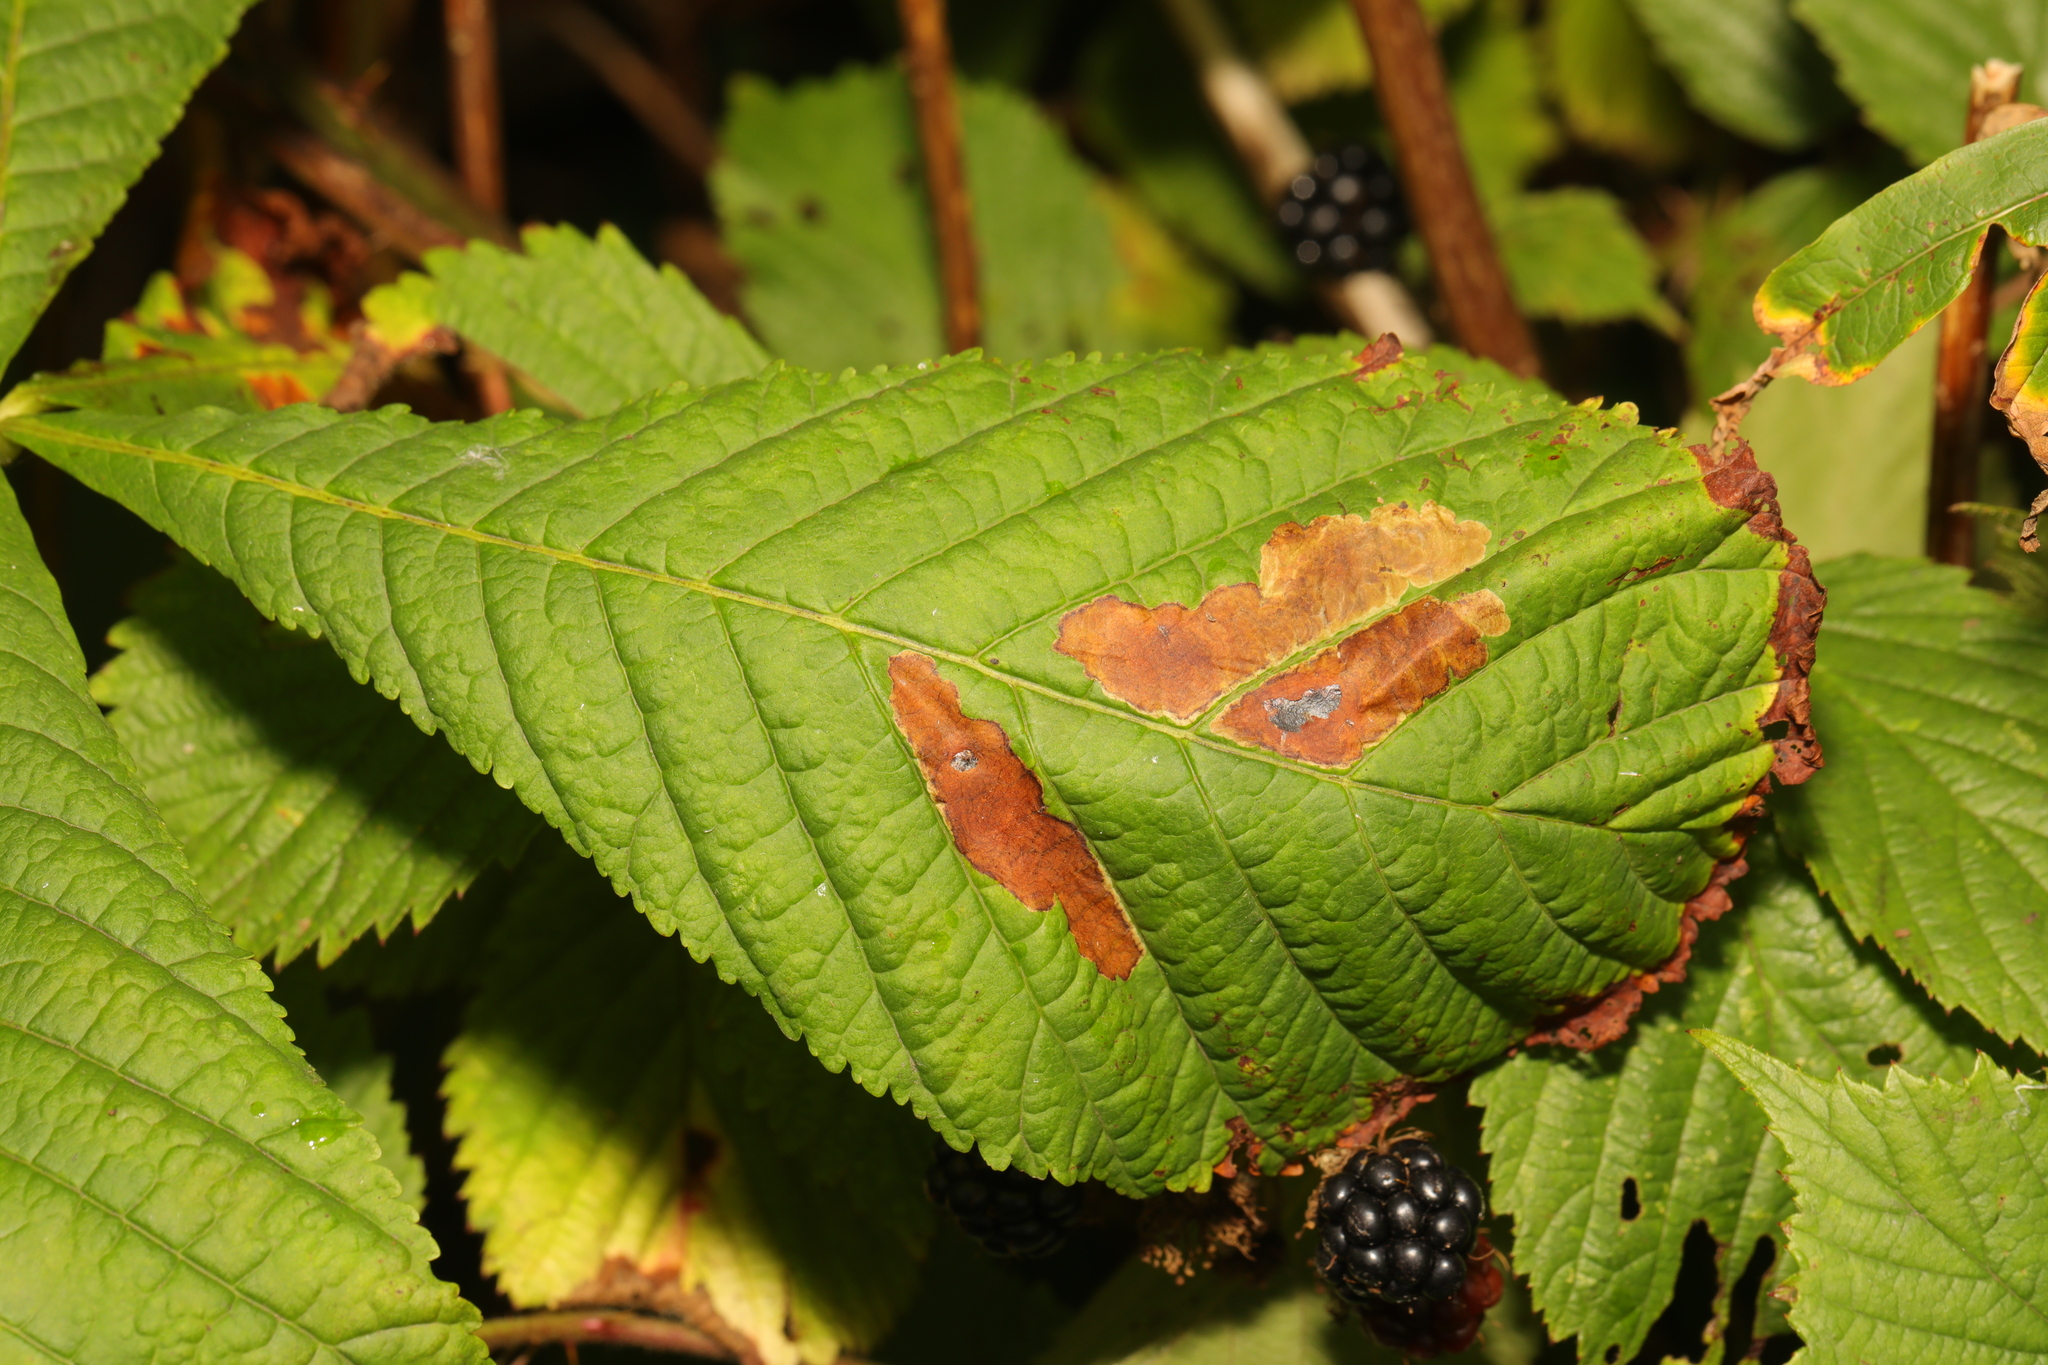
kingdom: Animalia
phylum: Arthropoda
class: Insecta
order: Lepidoptera
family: Gracillariidae
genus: Cameraria
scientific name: Cameraria ohridella
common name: Horse-chestnut leaf-miner
